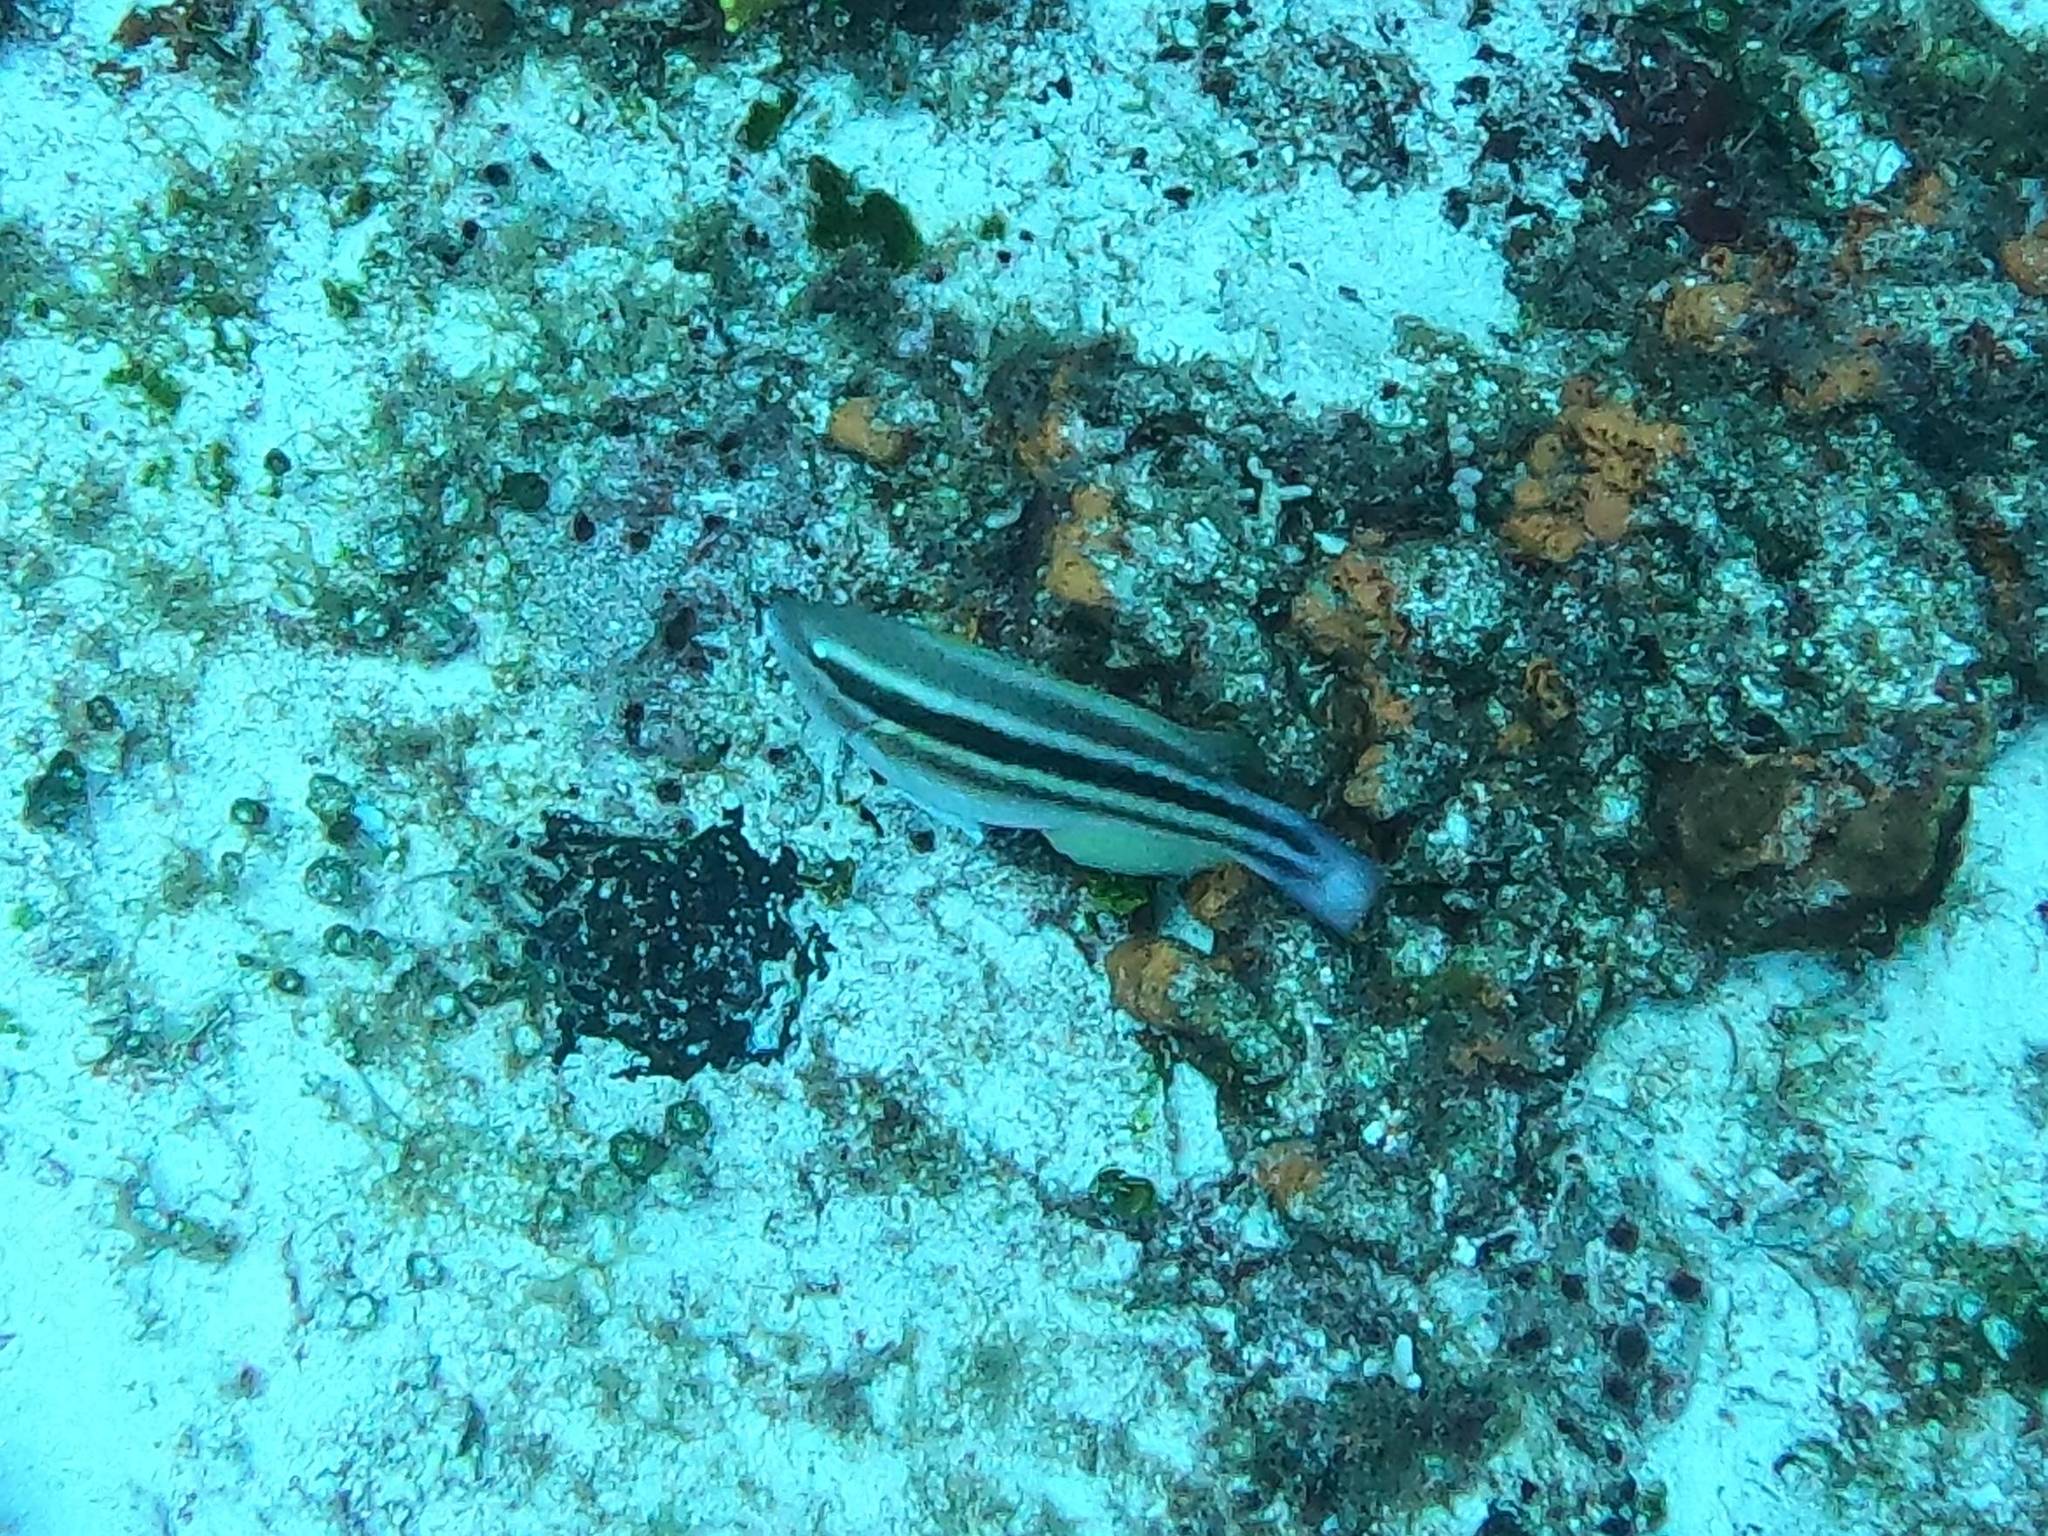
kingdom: Animalia
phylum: Chordata
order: Perciformes
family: Scaridae
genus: Scarus
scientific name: Scarus taeniopterus
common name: Princess parrotfish
